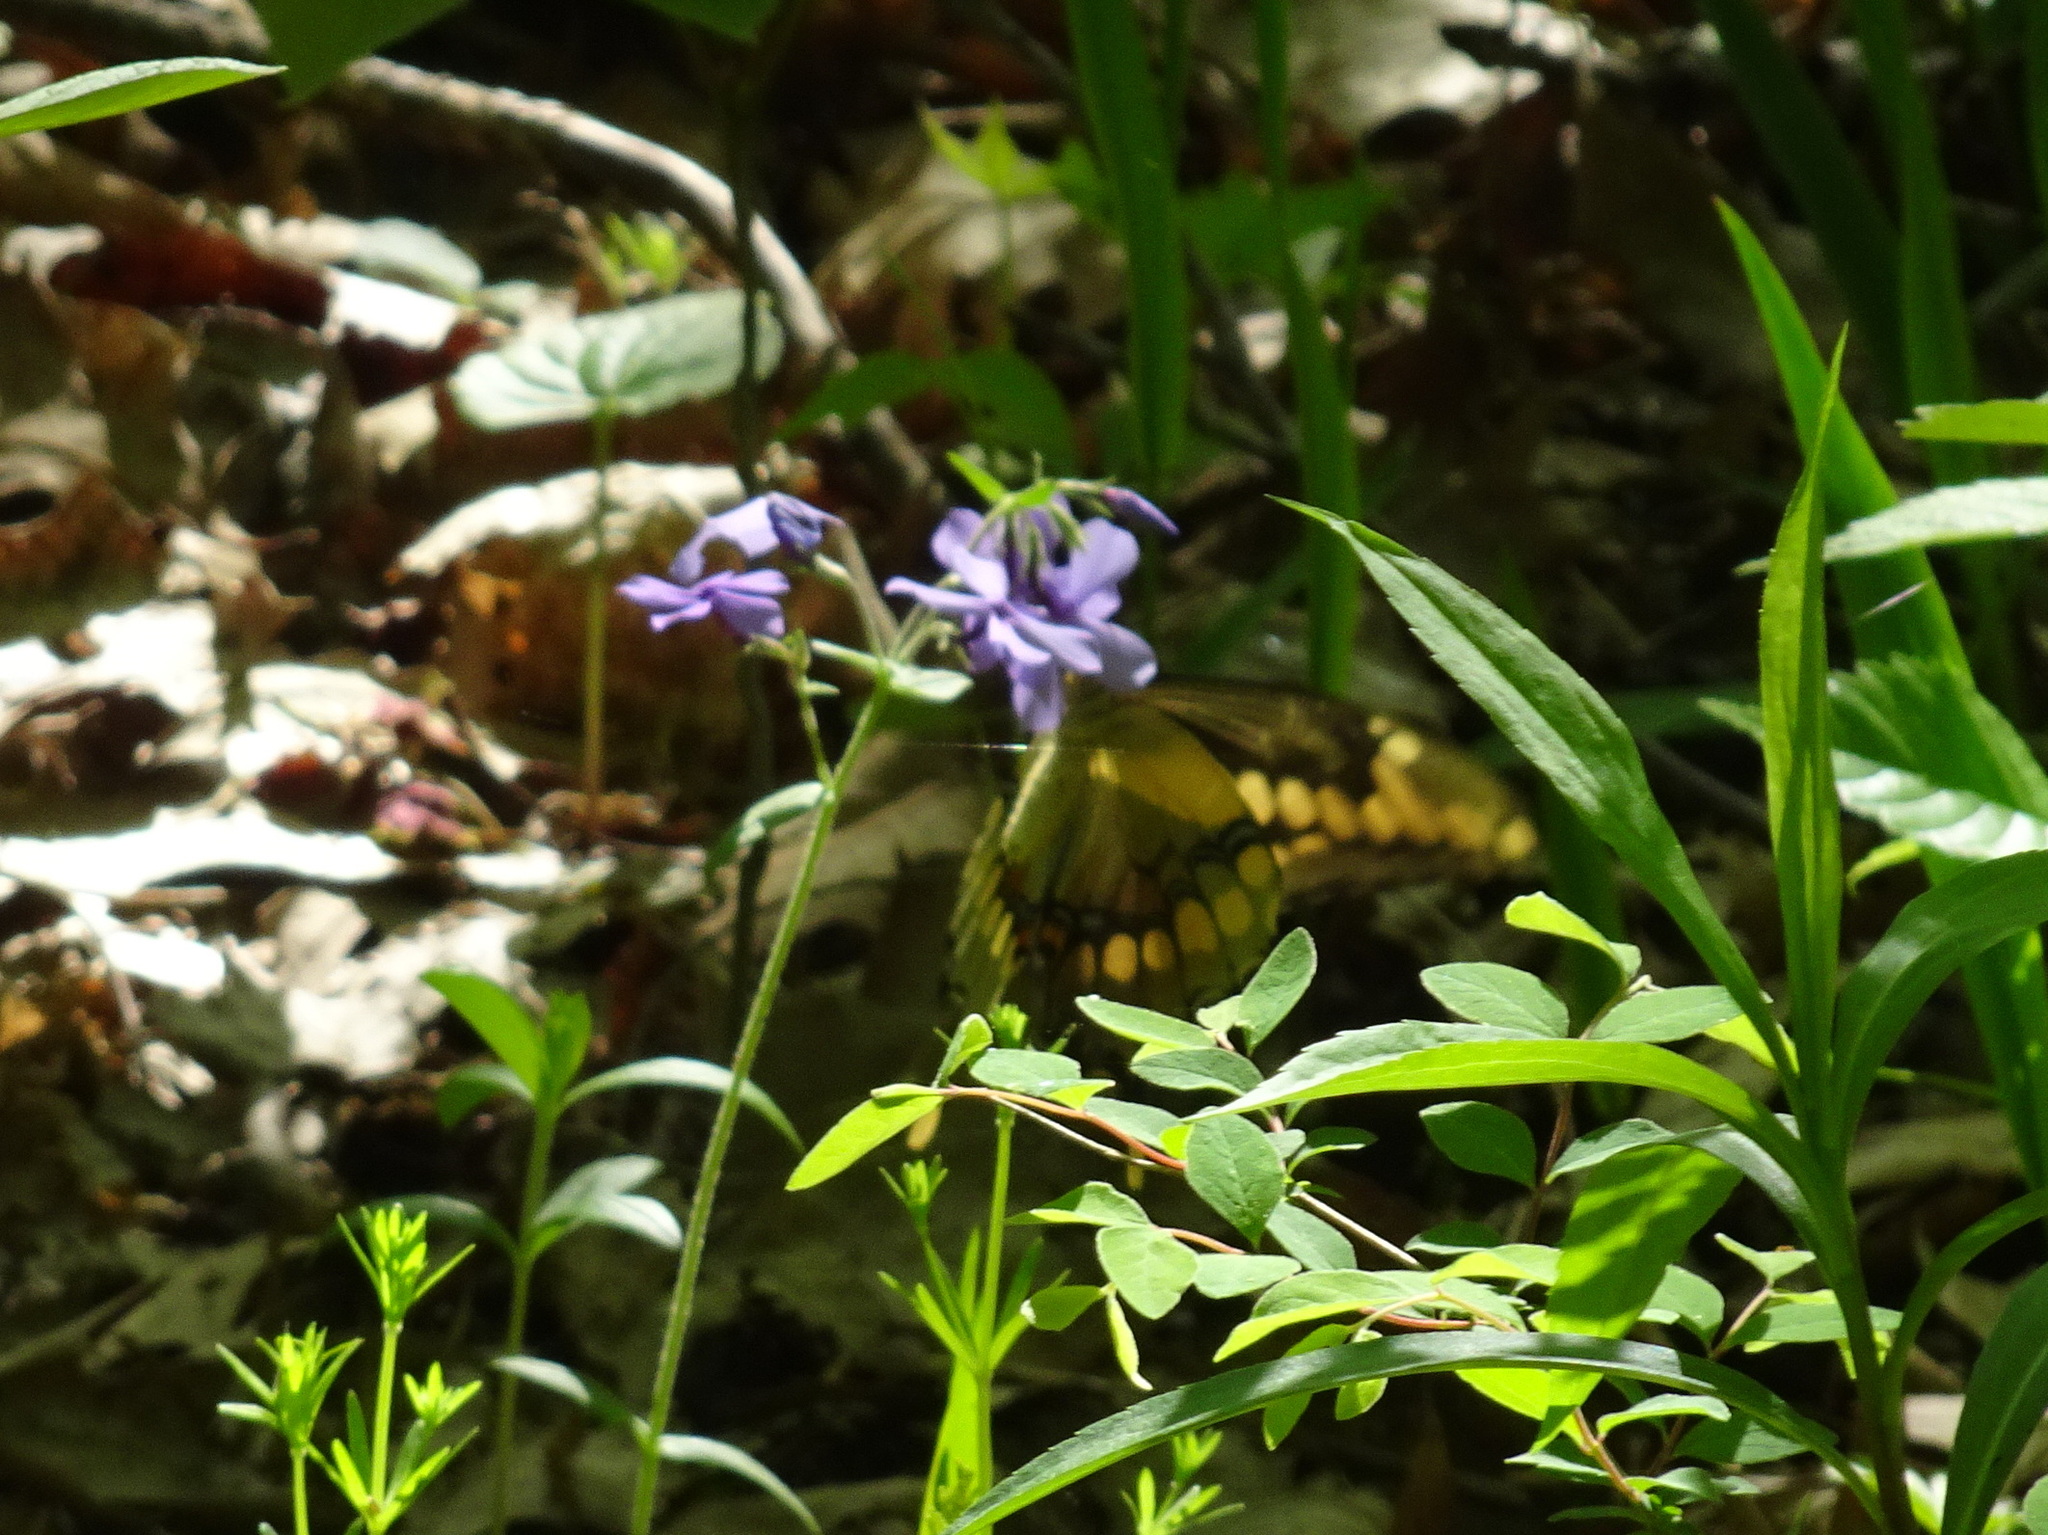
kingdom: Animalia
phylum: Arthropoda
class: Insecta
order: Lepidoptera
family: Papilionidae
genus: Papilio
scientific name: Papilio cresphontes
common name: Giant swallowtail
